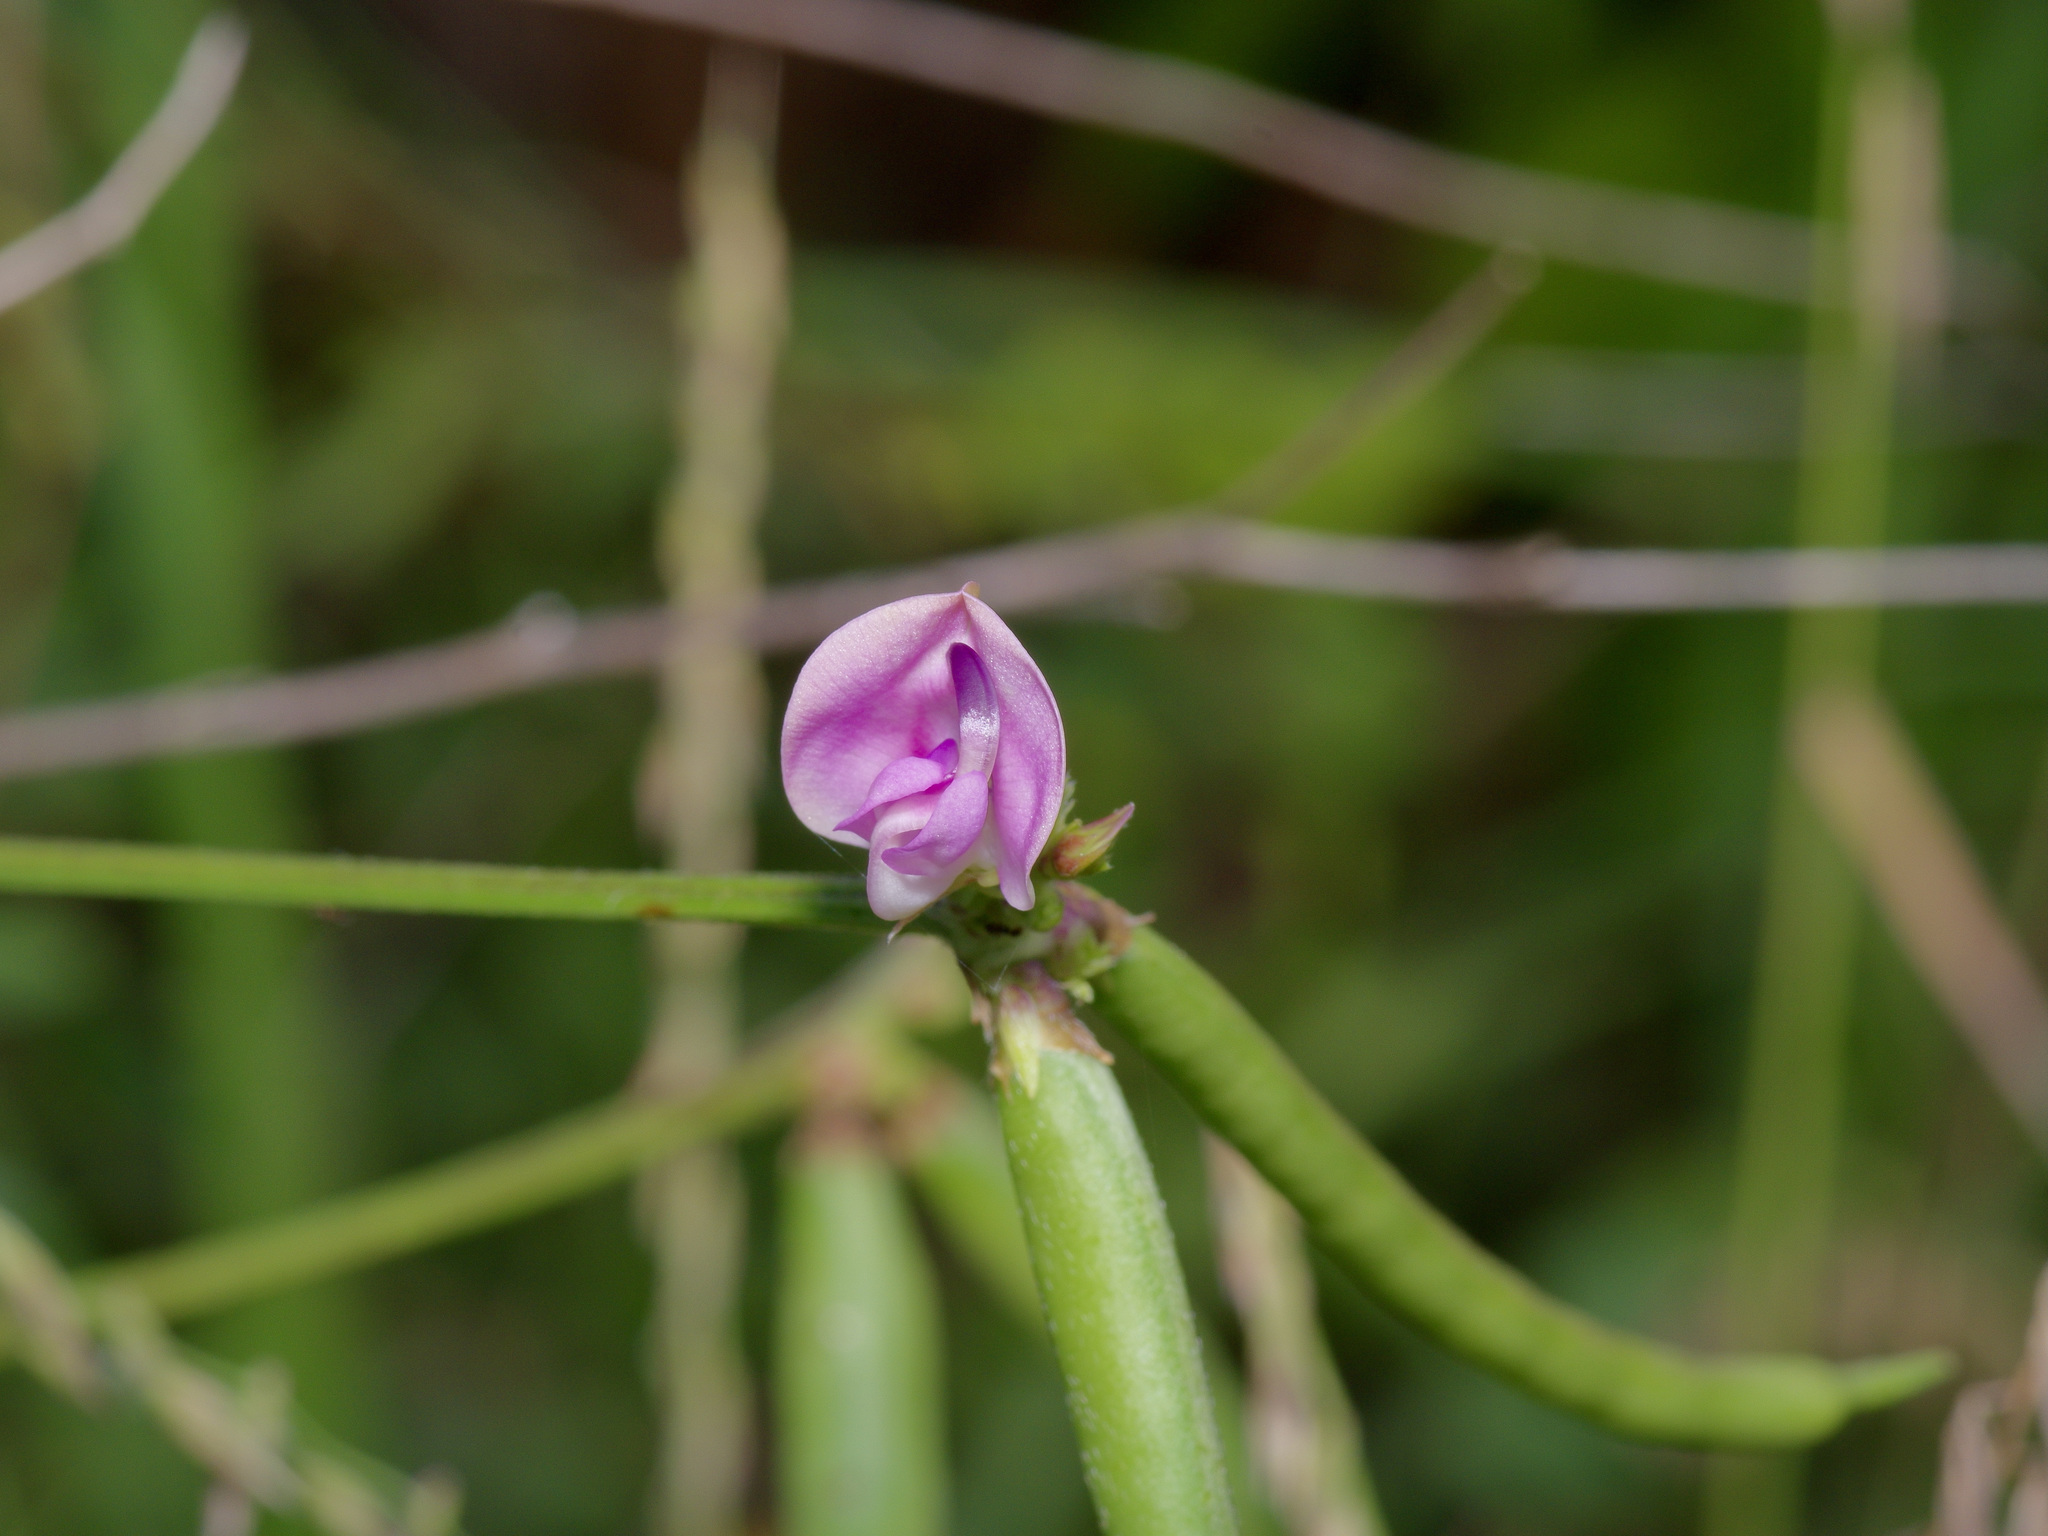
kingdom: Plantae
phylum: Tracheophyta
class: Magnoliopsida
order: Fabales
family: Fabaceae
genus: Strophostyles
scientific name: Strophostyles helvola
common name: Trailing wild bean
